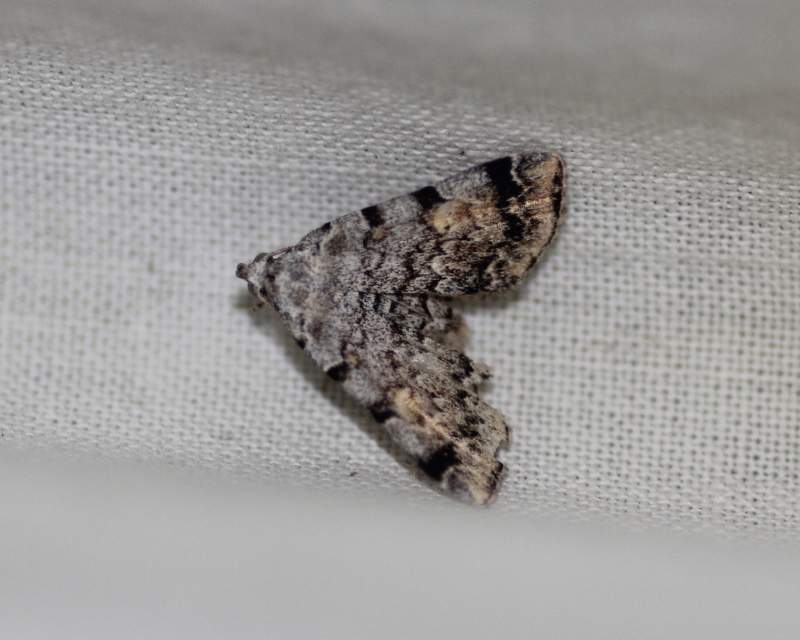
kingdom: Animalia
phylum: Arthropoda
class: Insecta
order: Lepidoptera
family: Erebidae
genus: Idia
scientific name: Idia americalis
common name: American idia moth
